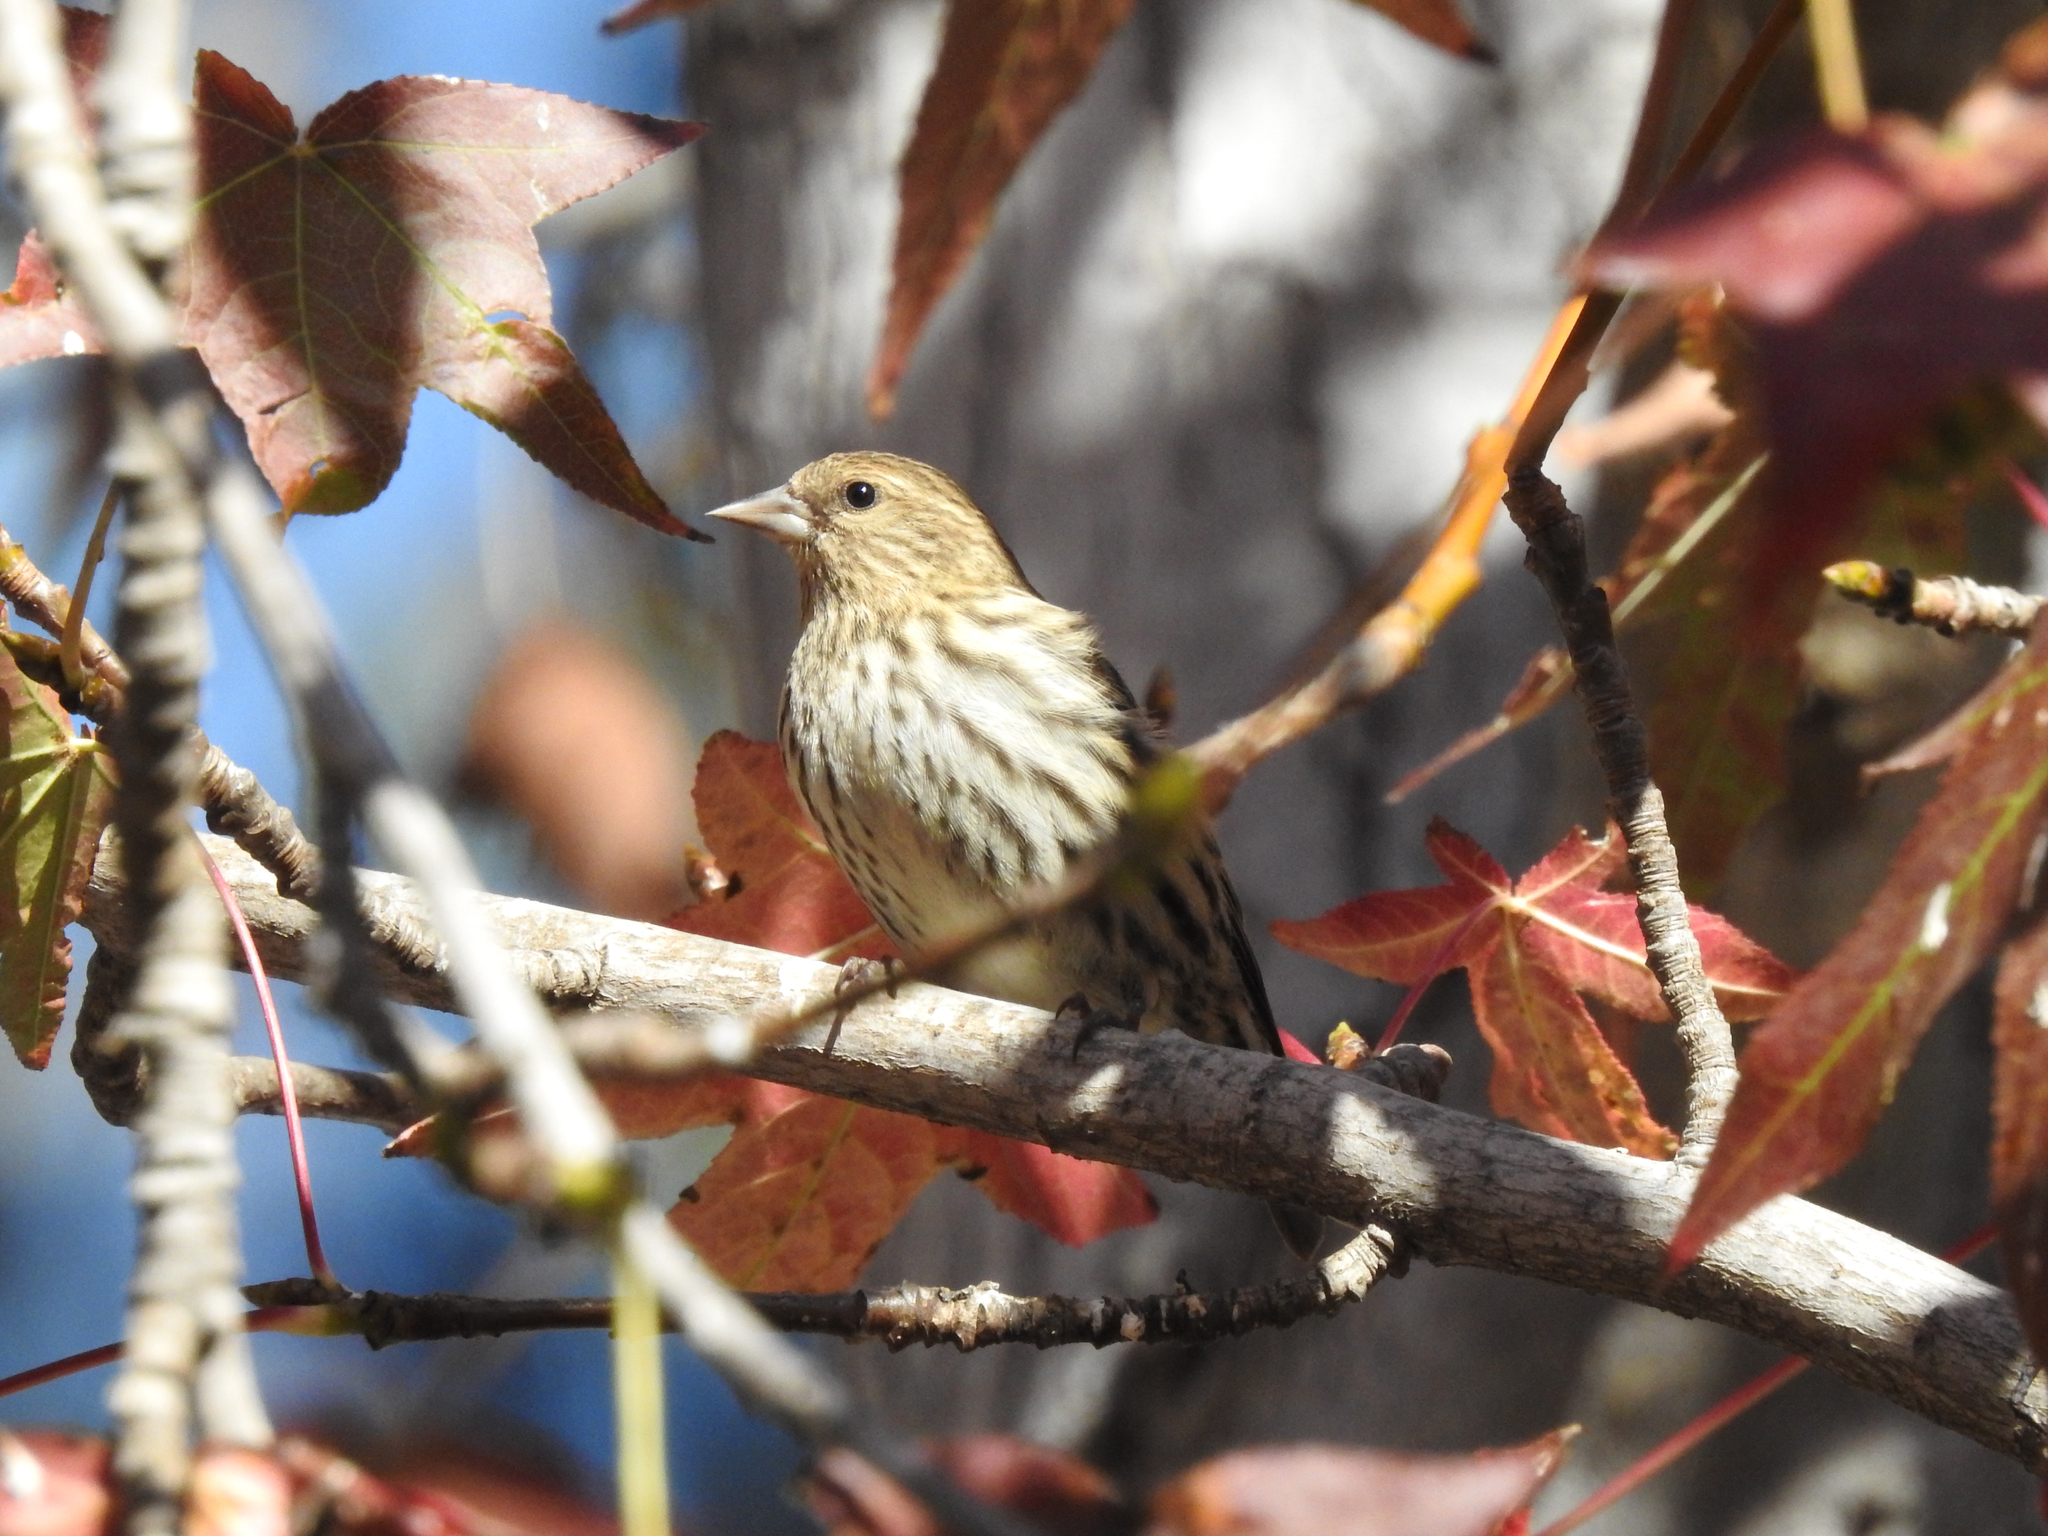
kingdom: Animalia
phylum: Chordata
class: Aves
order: Passeriformes
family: Fringillidae
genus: Spinus
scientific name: Spinus pinus
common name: Pine siskin
